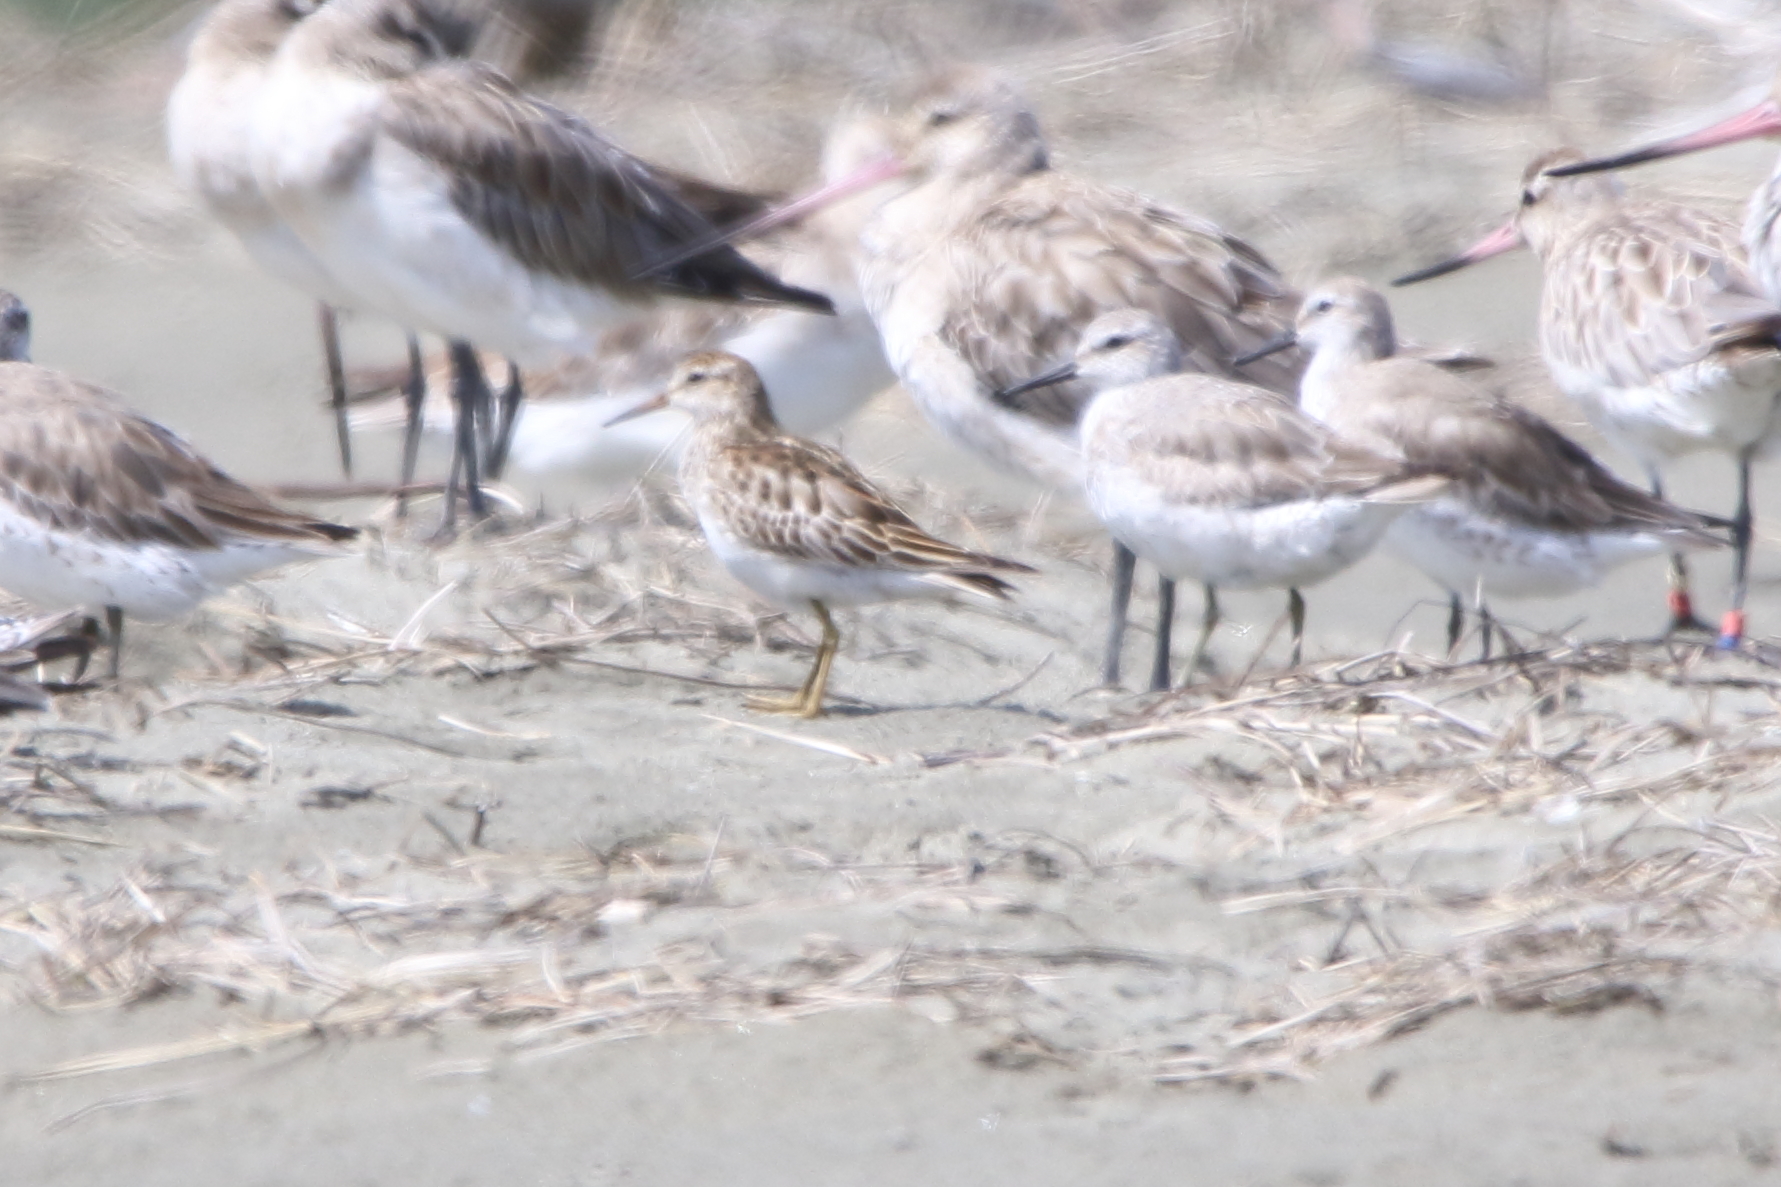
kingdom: Animalia
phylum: Chordata
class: Aves
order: Charadriiformes
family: Scolopacidae
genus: Calidris
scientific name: Calidris acuminata
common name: Sharp-tailed sandpiper
